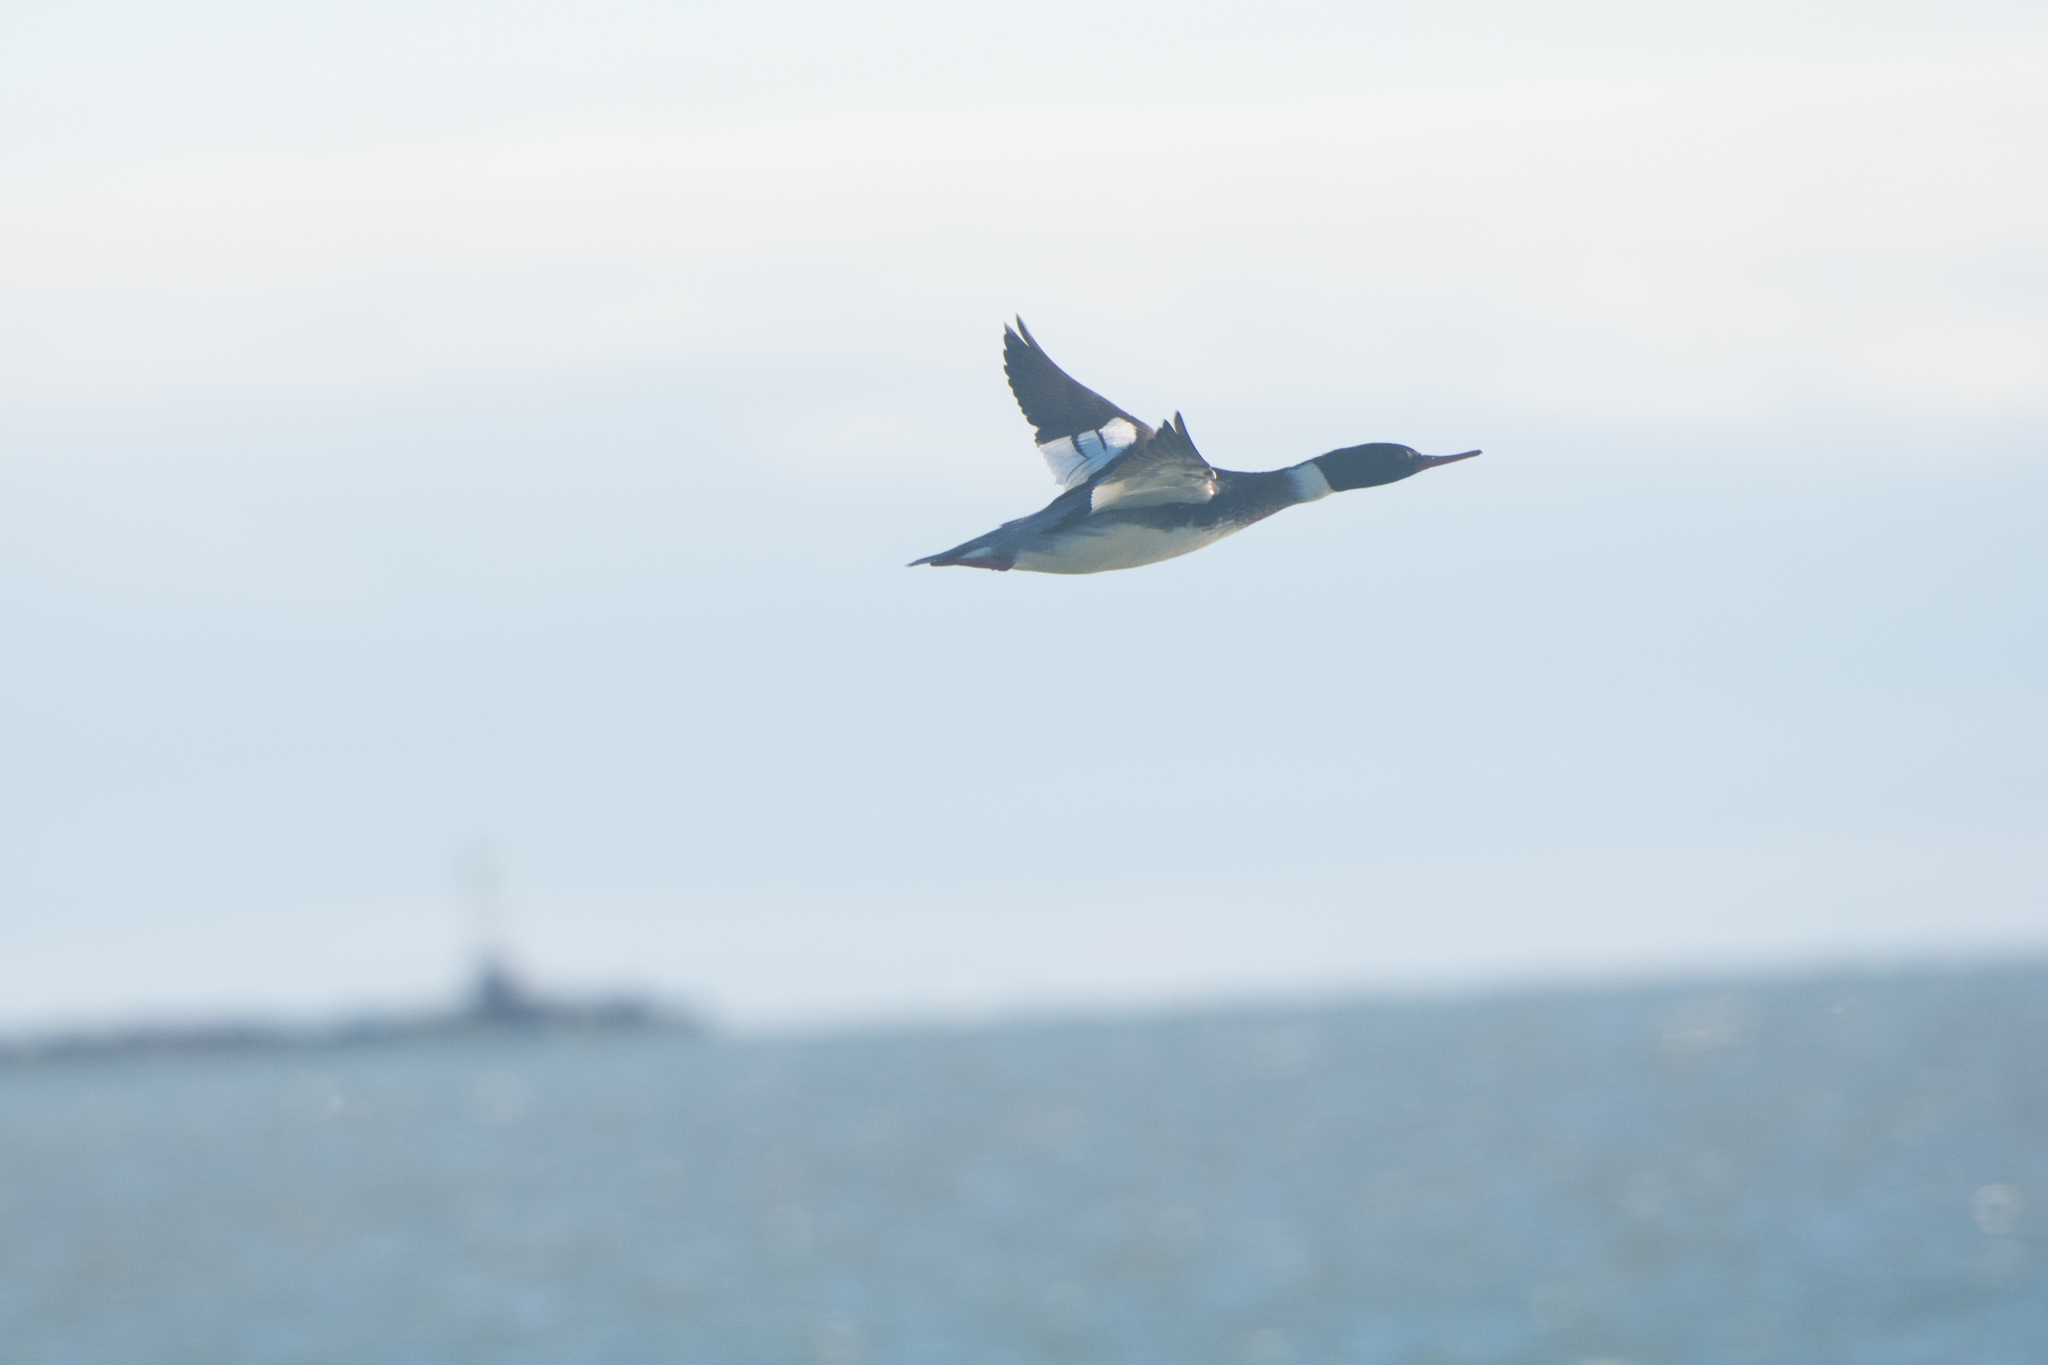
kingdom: Animalia
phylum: Chordata
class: Aves
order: Anseriformes
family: Anatidae
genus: Mergus
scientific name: Mergus serrator
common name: Red-breasted merganser
